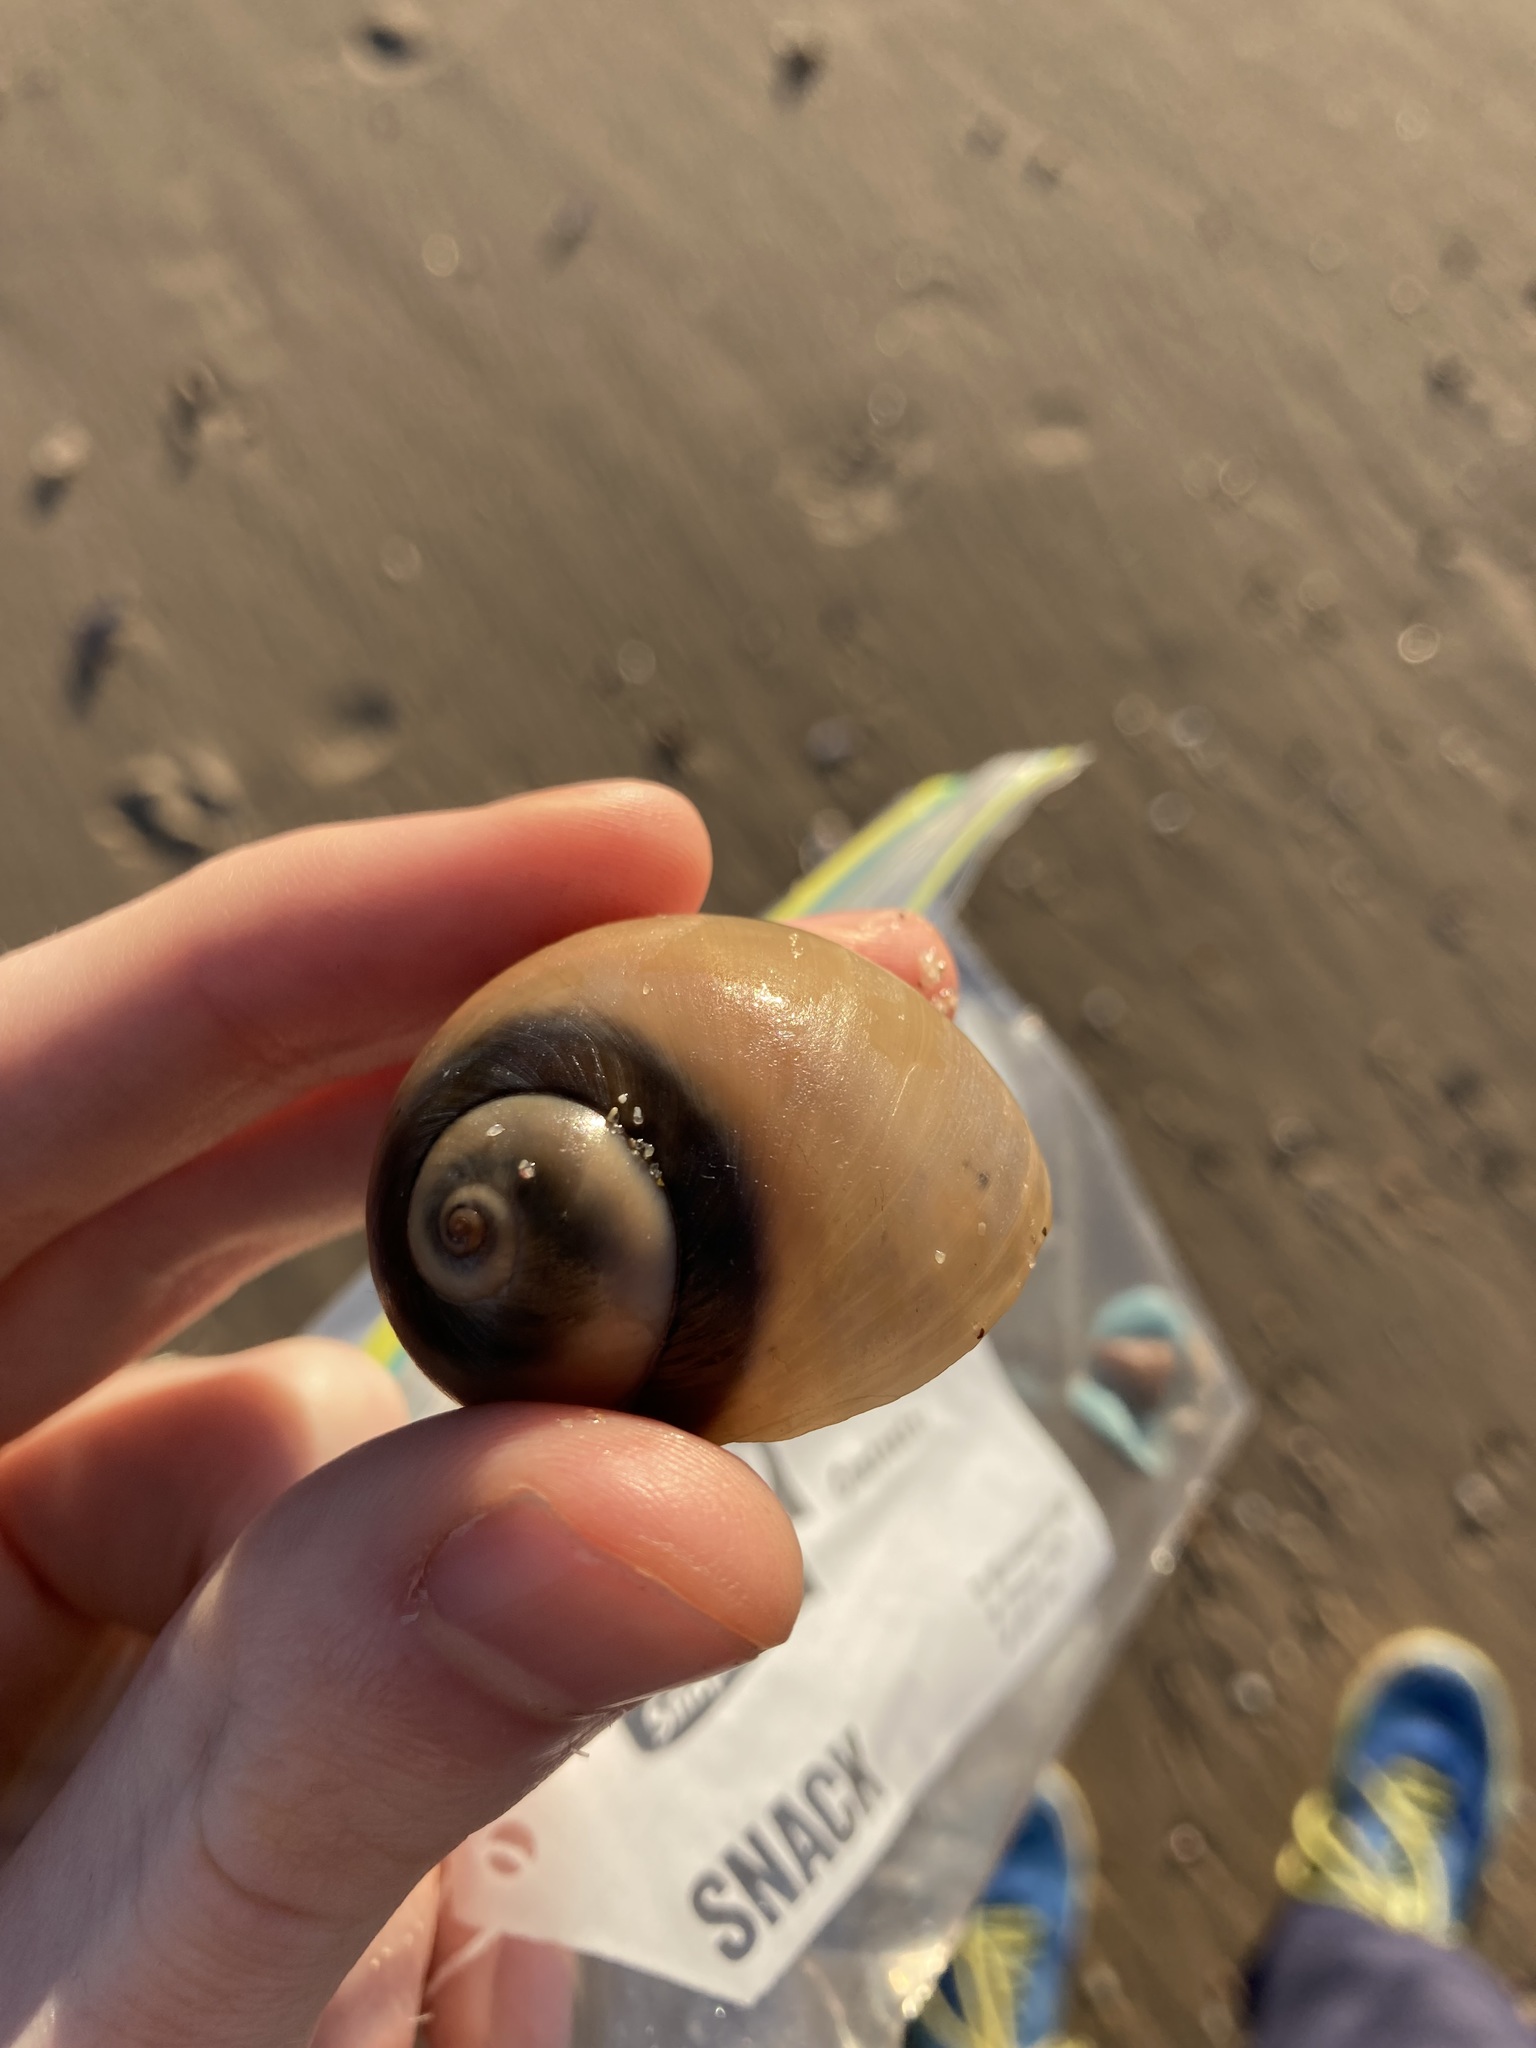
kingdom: Animalia
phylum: Mollusca
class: Gastropoda
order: Littorinimorpha
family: Naticidae
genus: Neverita
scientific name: Neverita didyma
